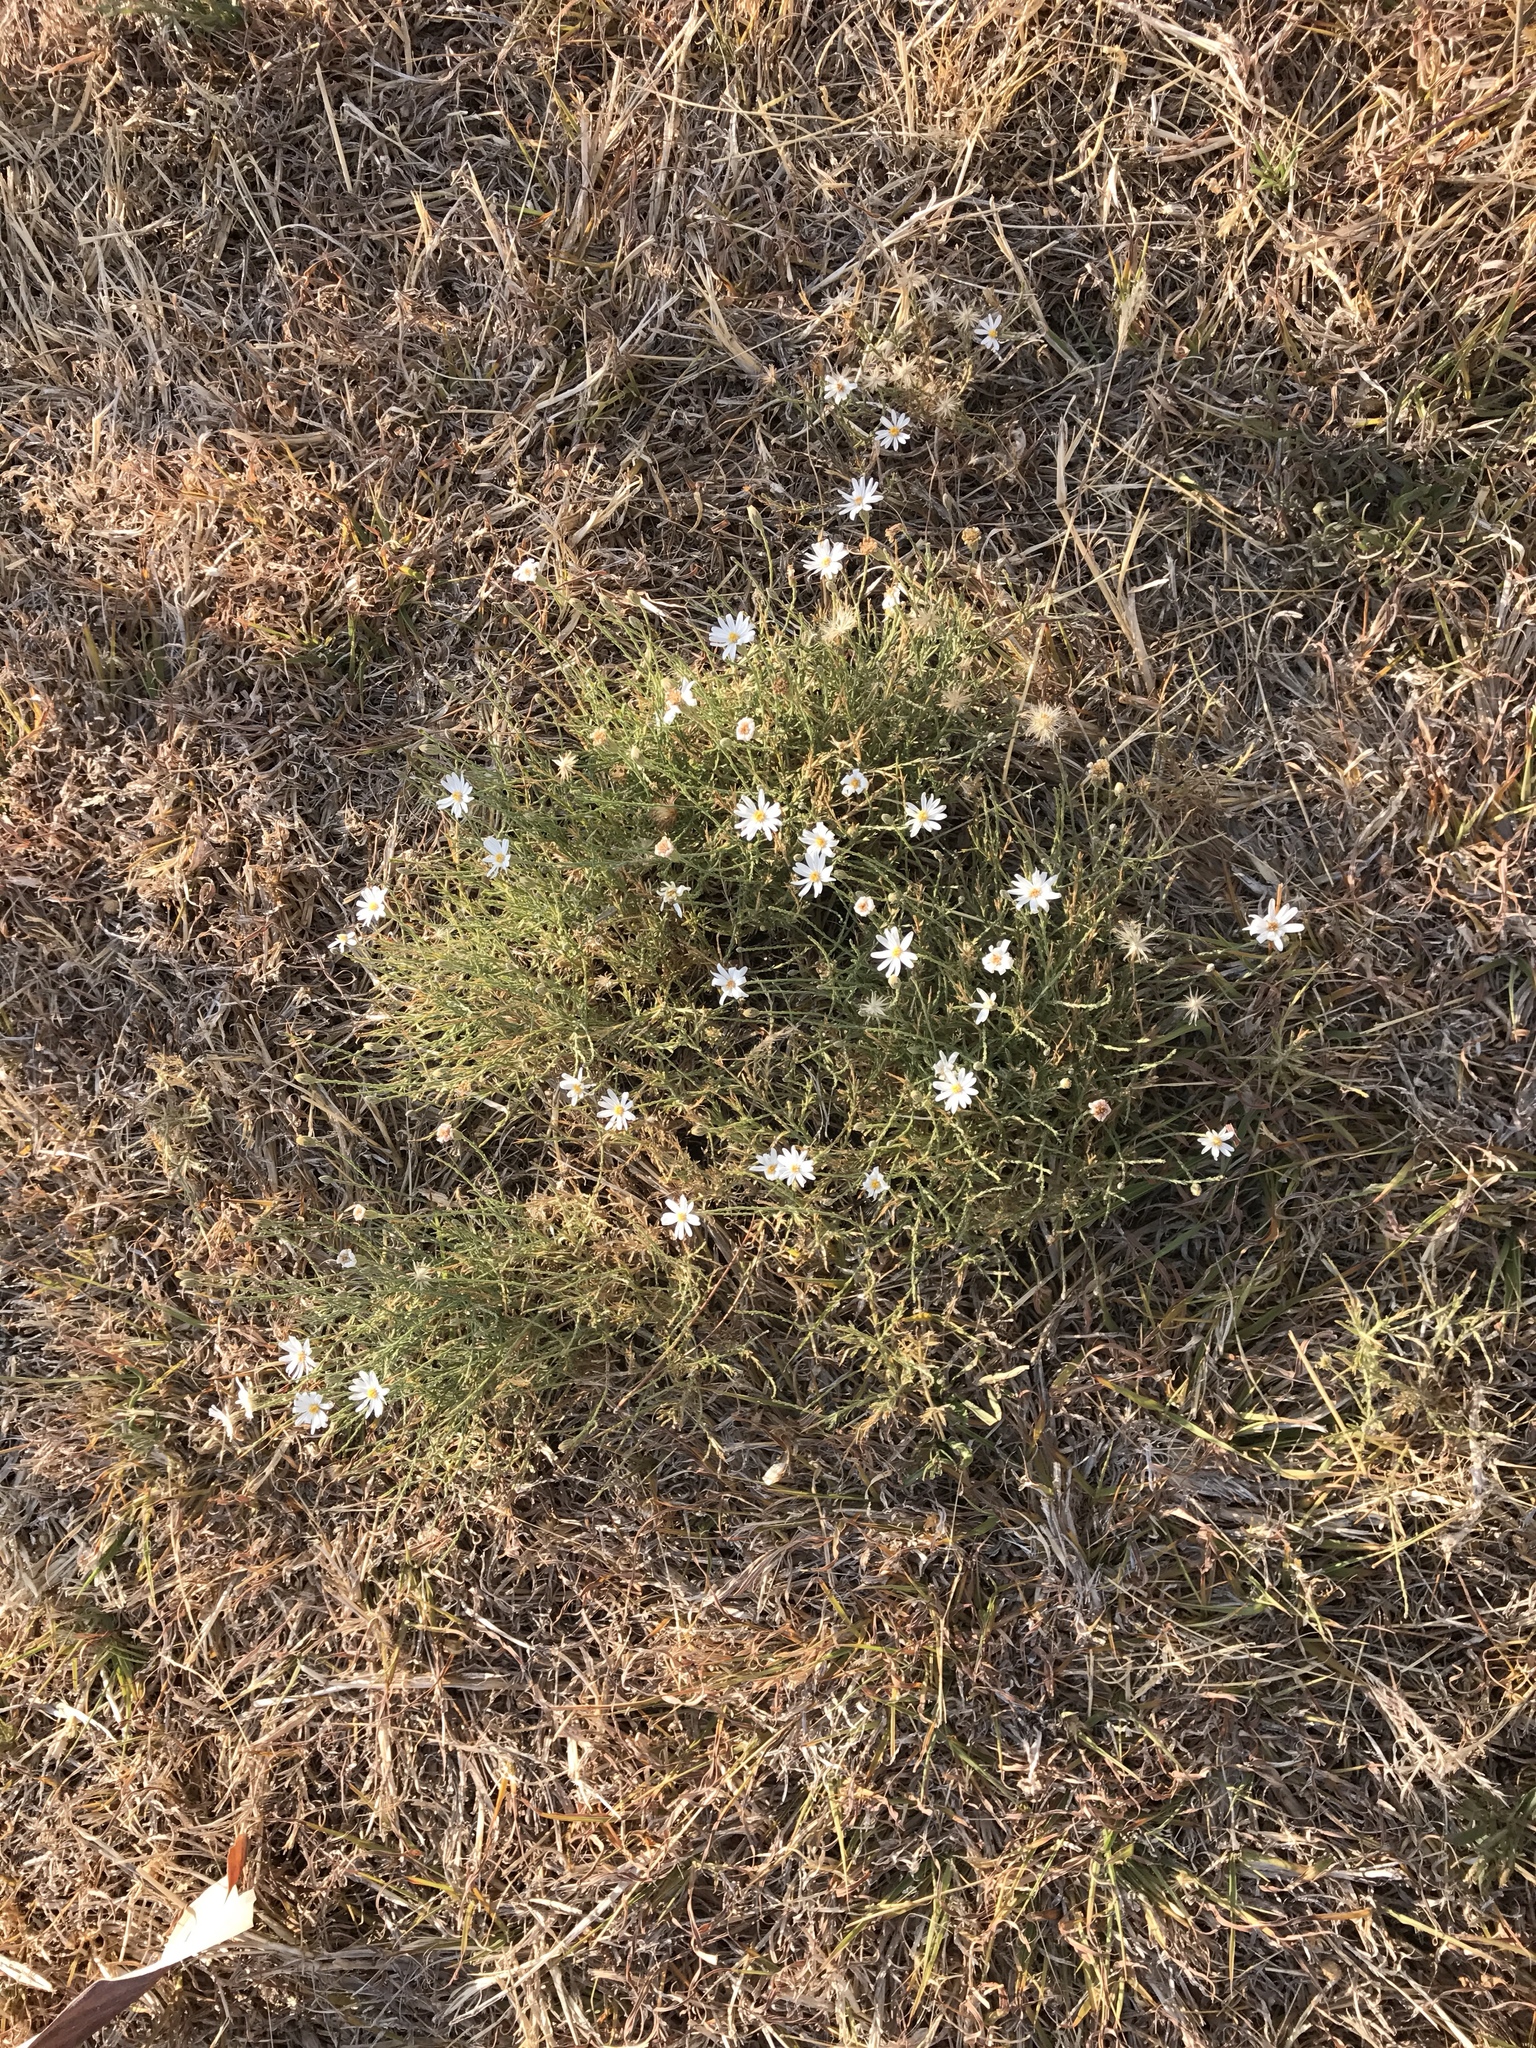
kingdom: Plantae
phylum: Tracheophyta
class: Magnoliopsida
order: Asterales
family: Asteraceae
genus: Chaetopappa
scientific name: Chaetopappa ericoides
